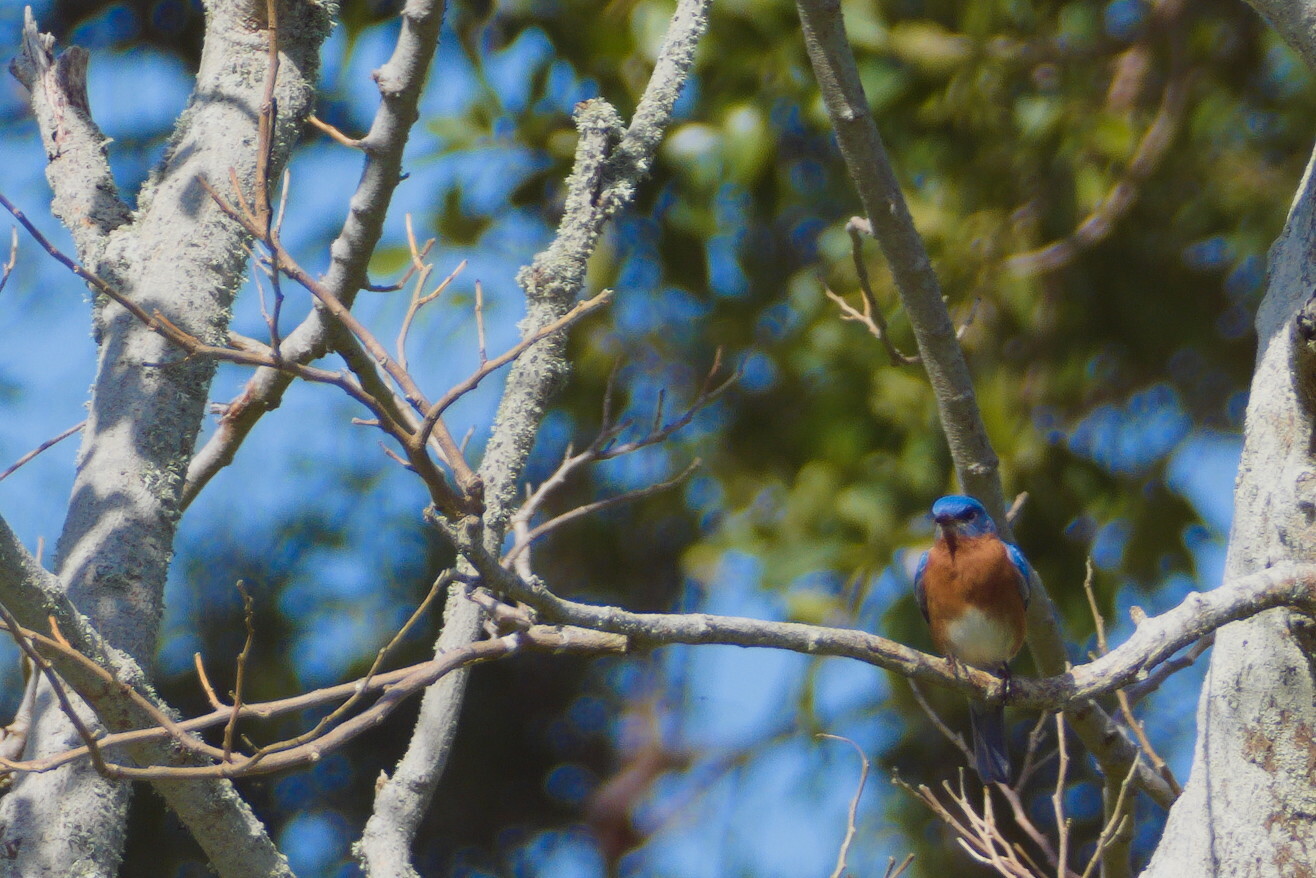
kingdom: Animalia
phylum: Chordata
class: Aves
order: Passeriformes
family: Turdidae
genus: Sialia
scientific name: Sialia sialis
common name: Eastern bluebird
